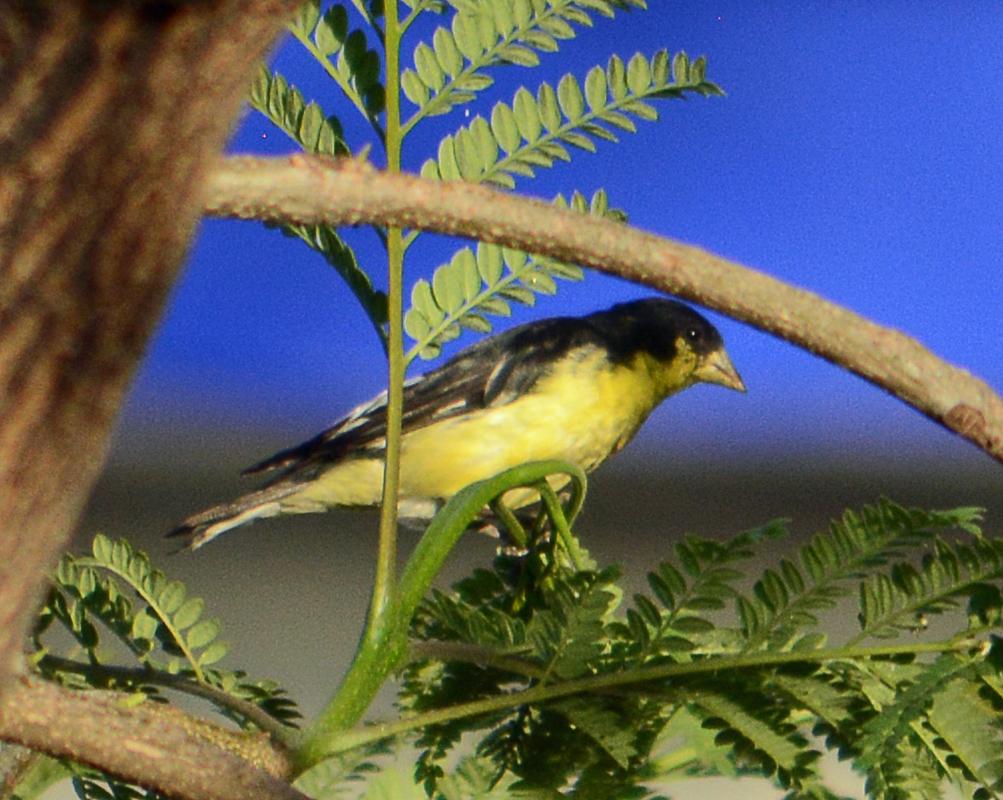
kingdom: Animalia
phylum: Chordata
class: Aves
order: Passeriformes
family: Fringillidae
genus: Spinus
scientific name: Spinus psaltria
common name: Lesser goldfinch
